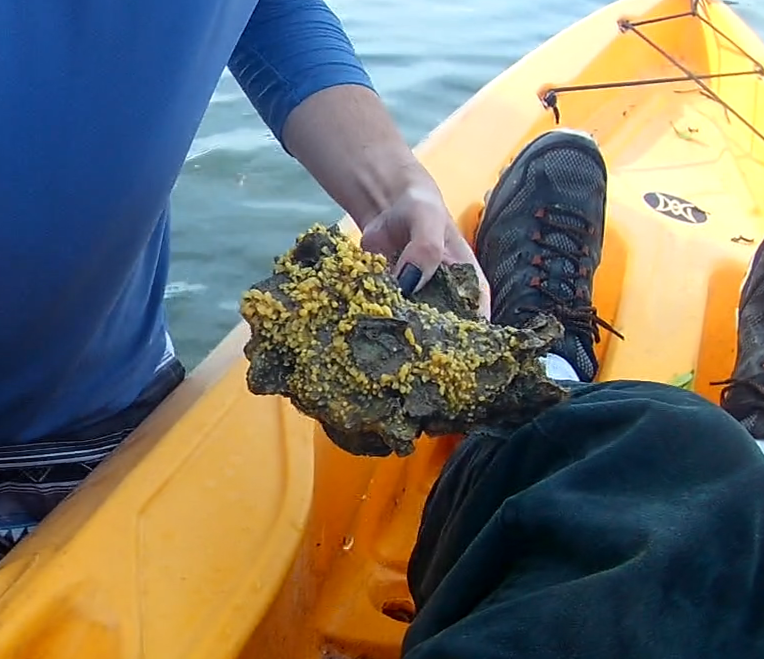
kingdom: Animalia
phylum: Porifera
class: Demospongiae
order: Clionaida
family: Clionaidae
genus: Cliona
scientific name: Cliona celata
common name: Boring sponge
